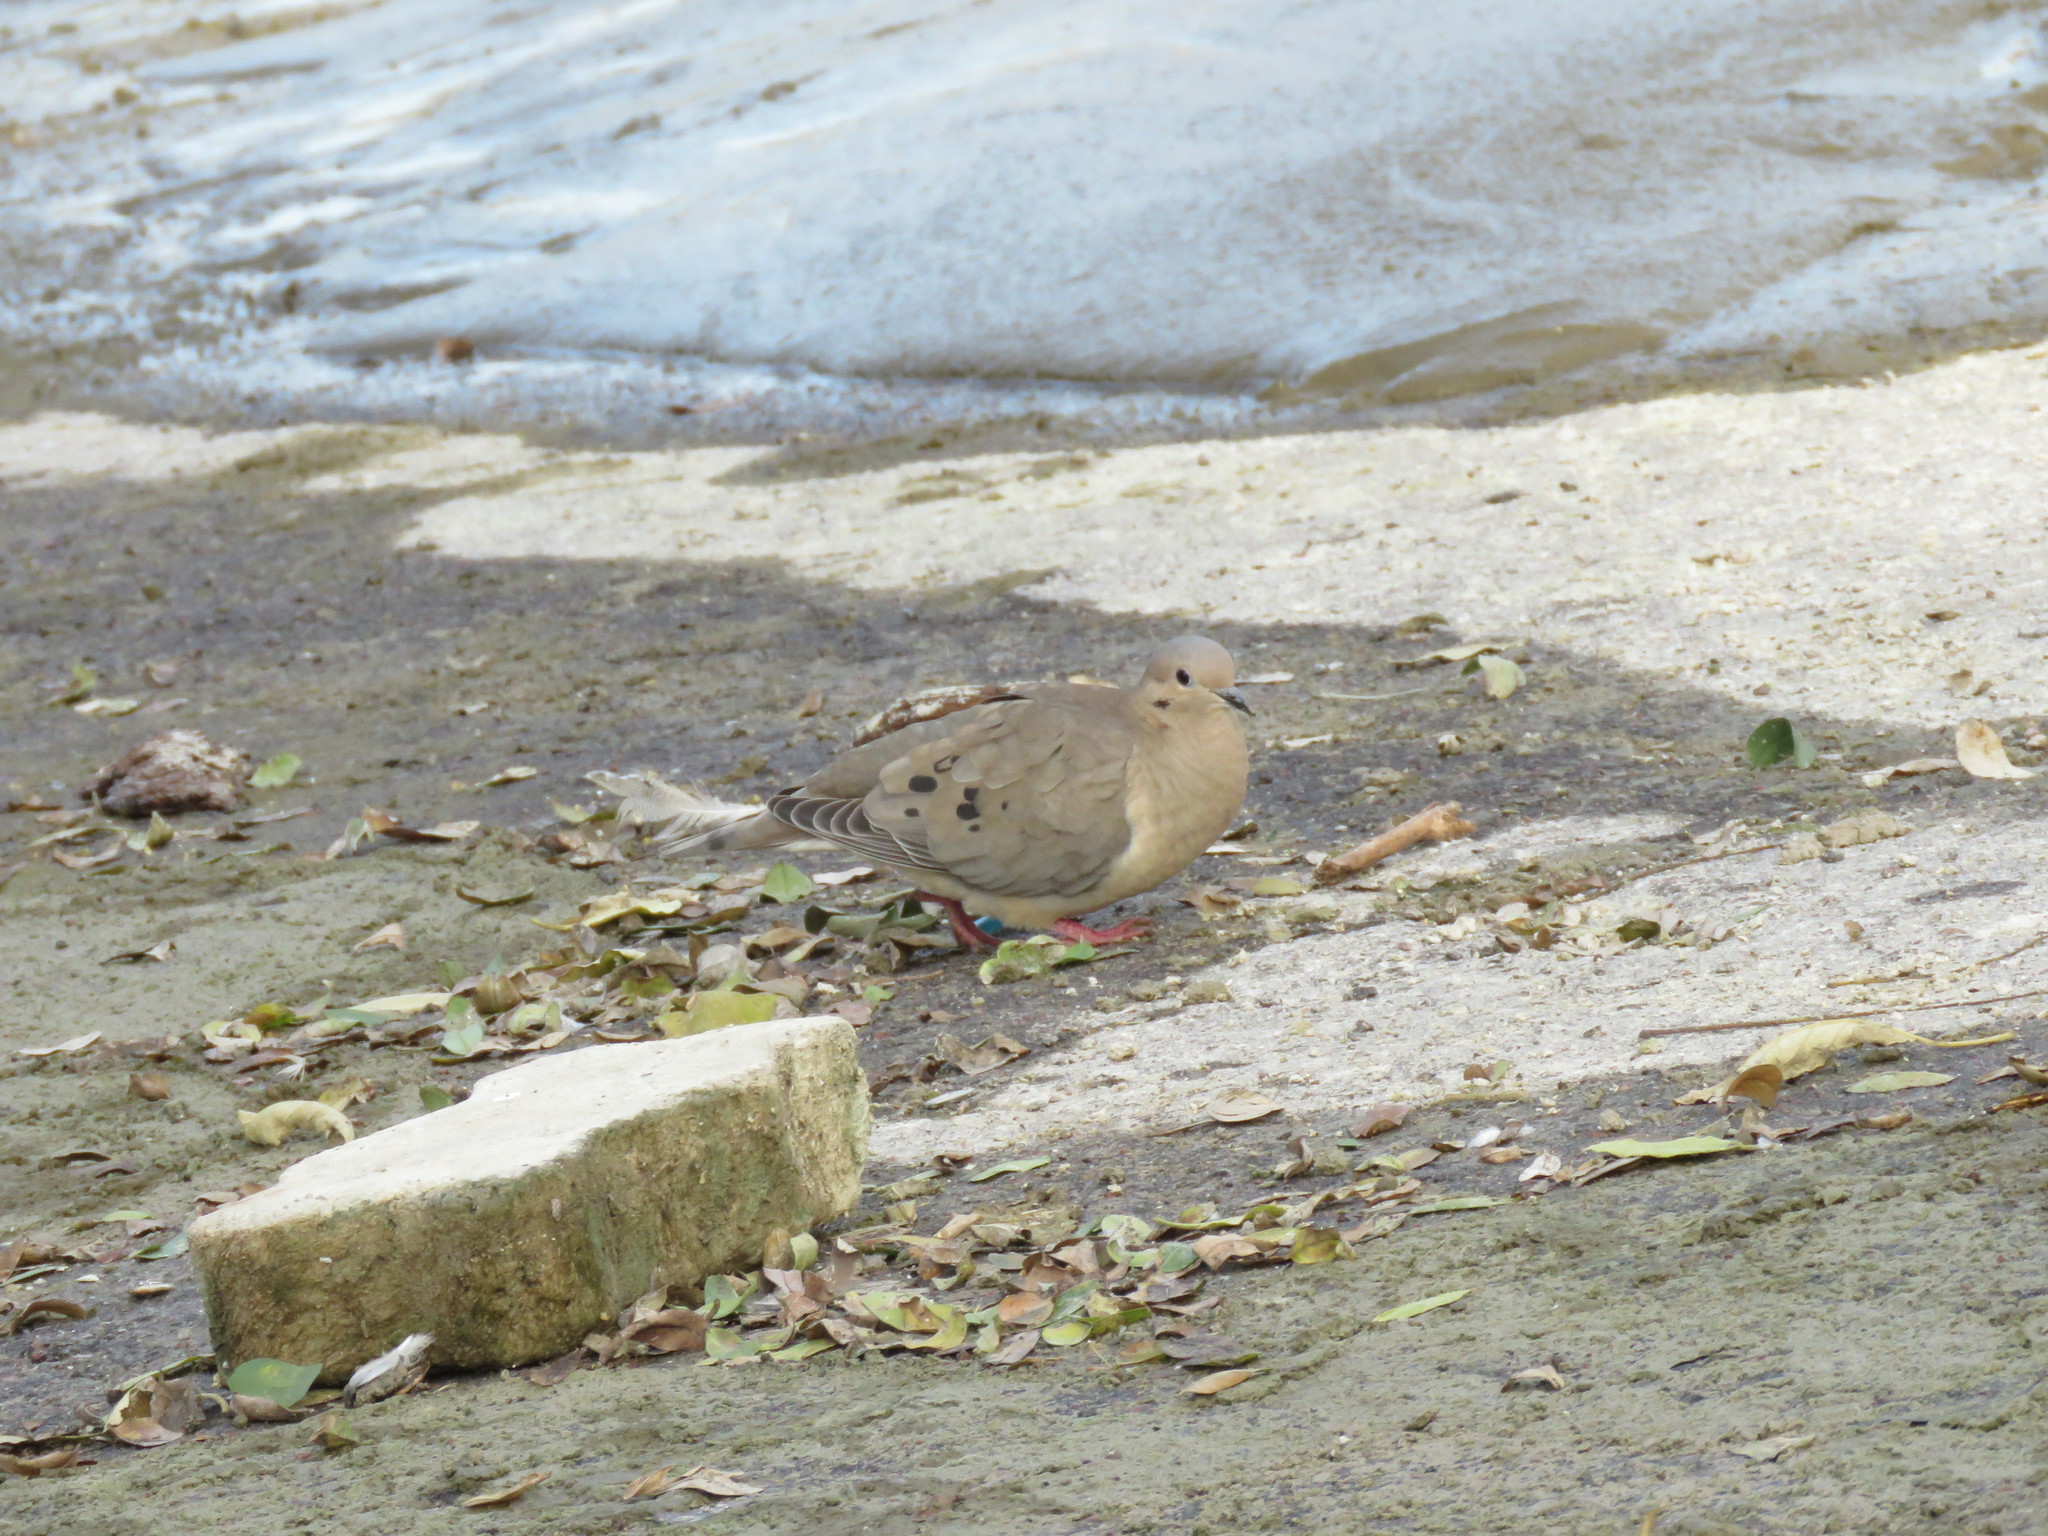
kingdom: Animalia
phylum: Chordata
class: Aves
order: Columbiformes
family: Columbidae
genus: Zenaida
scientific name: Zenaida auriculata
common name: Eared dove
